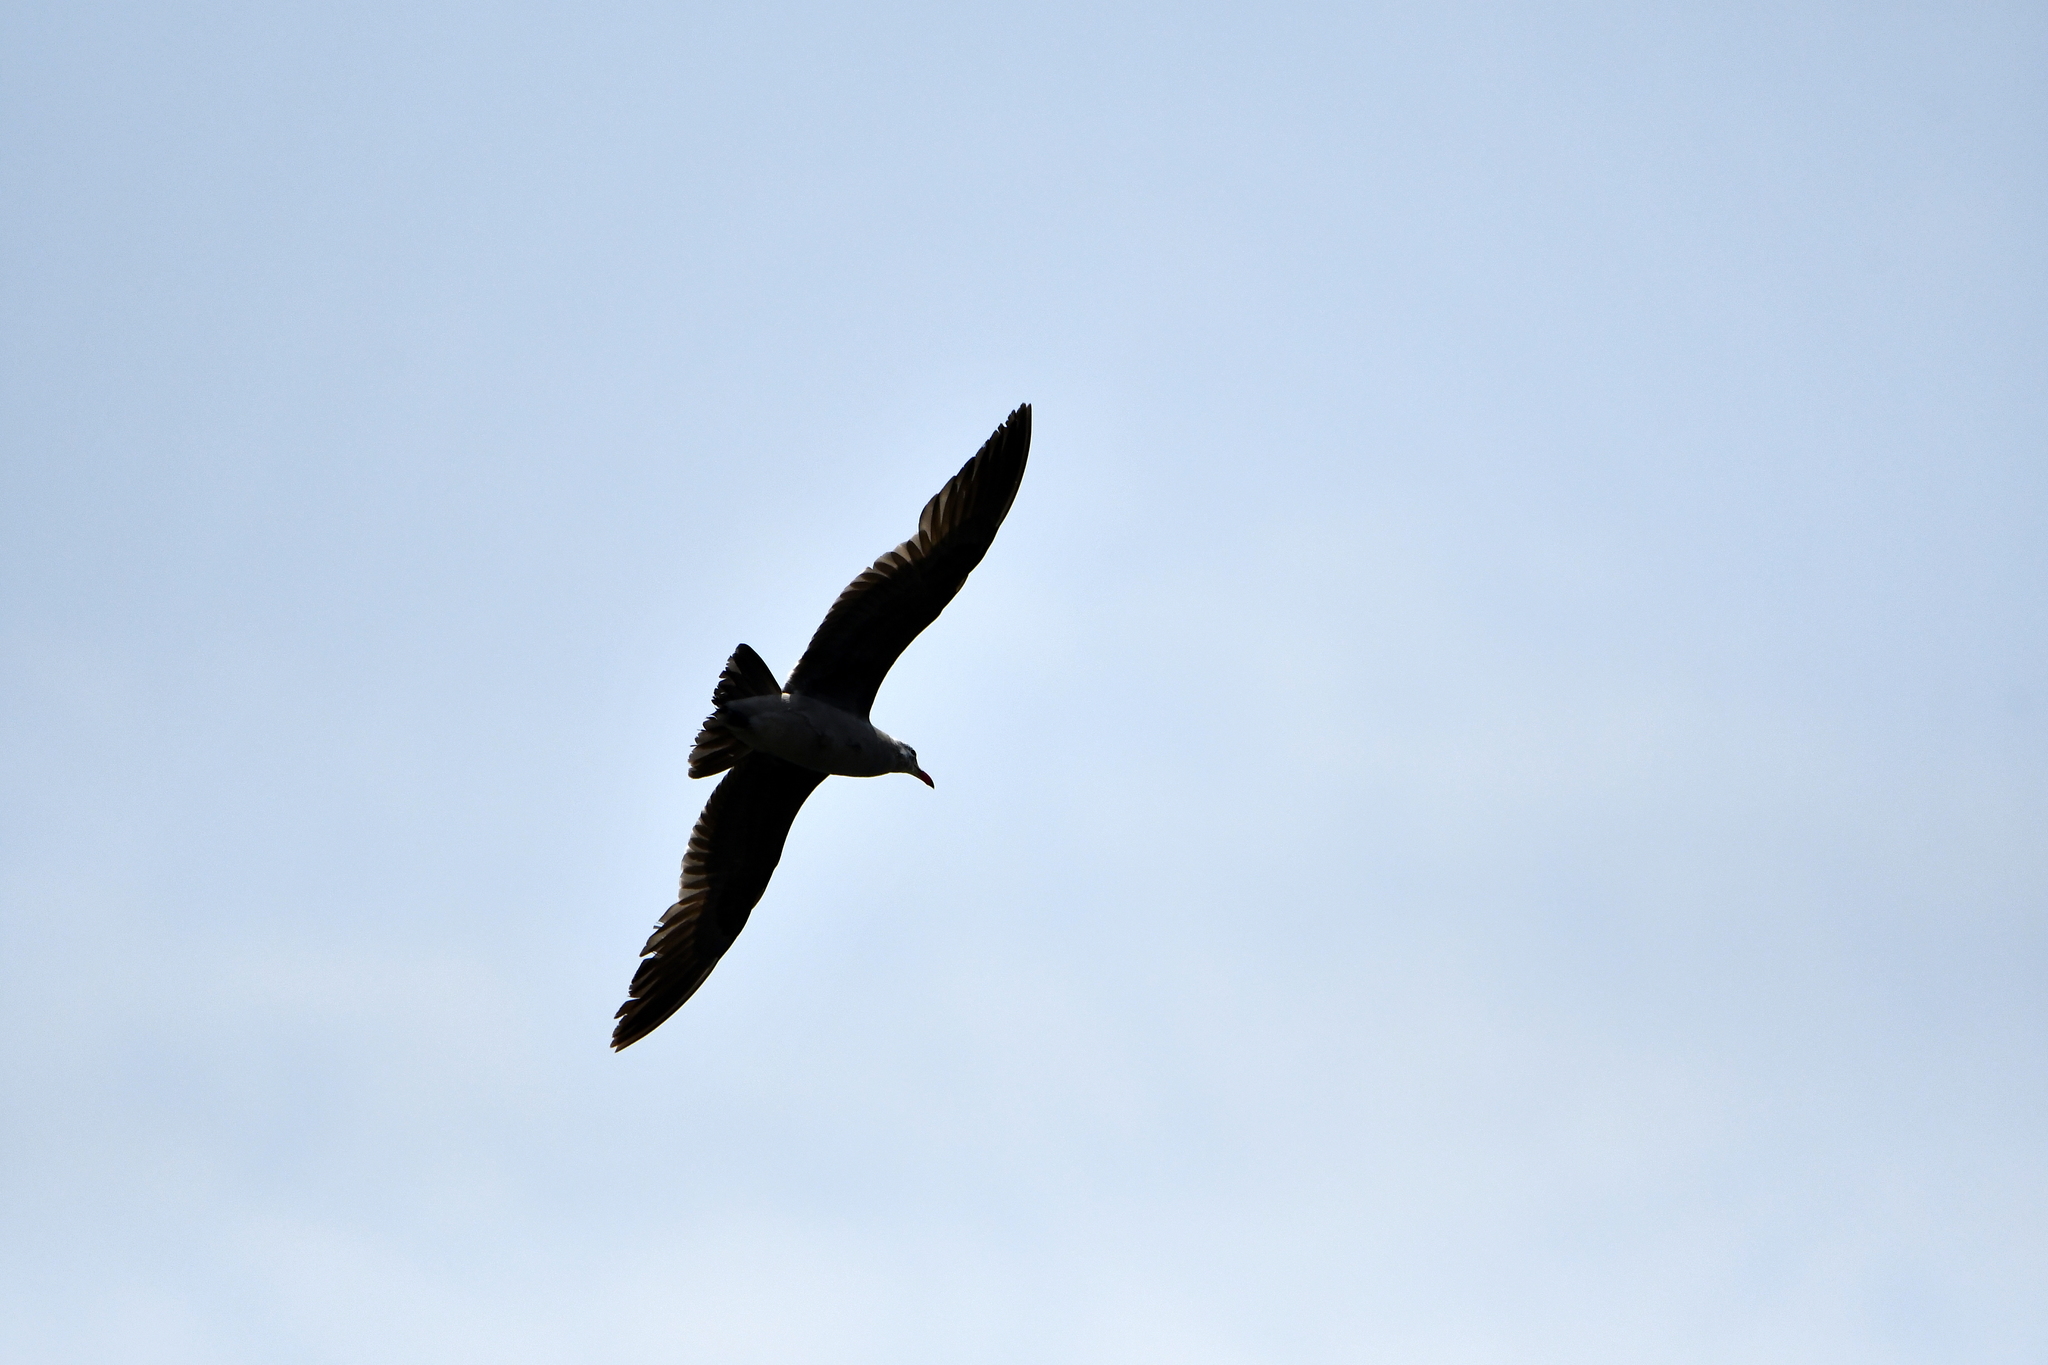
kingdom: Animalia
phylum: Chordata
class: Aves
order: Charadriiformes
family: Laridae
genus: Larus
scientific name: Larus heermanni
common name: Heermann's gull
